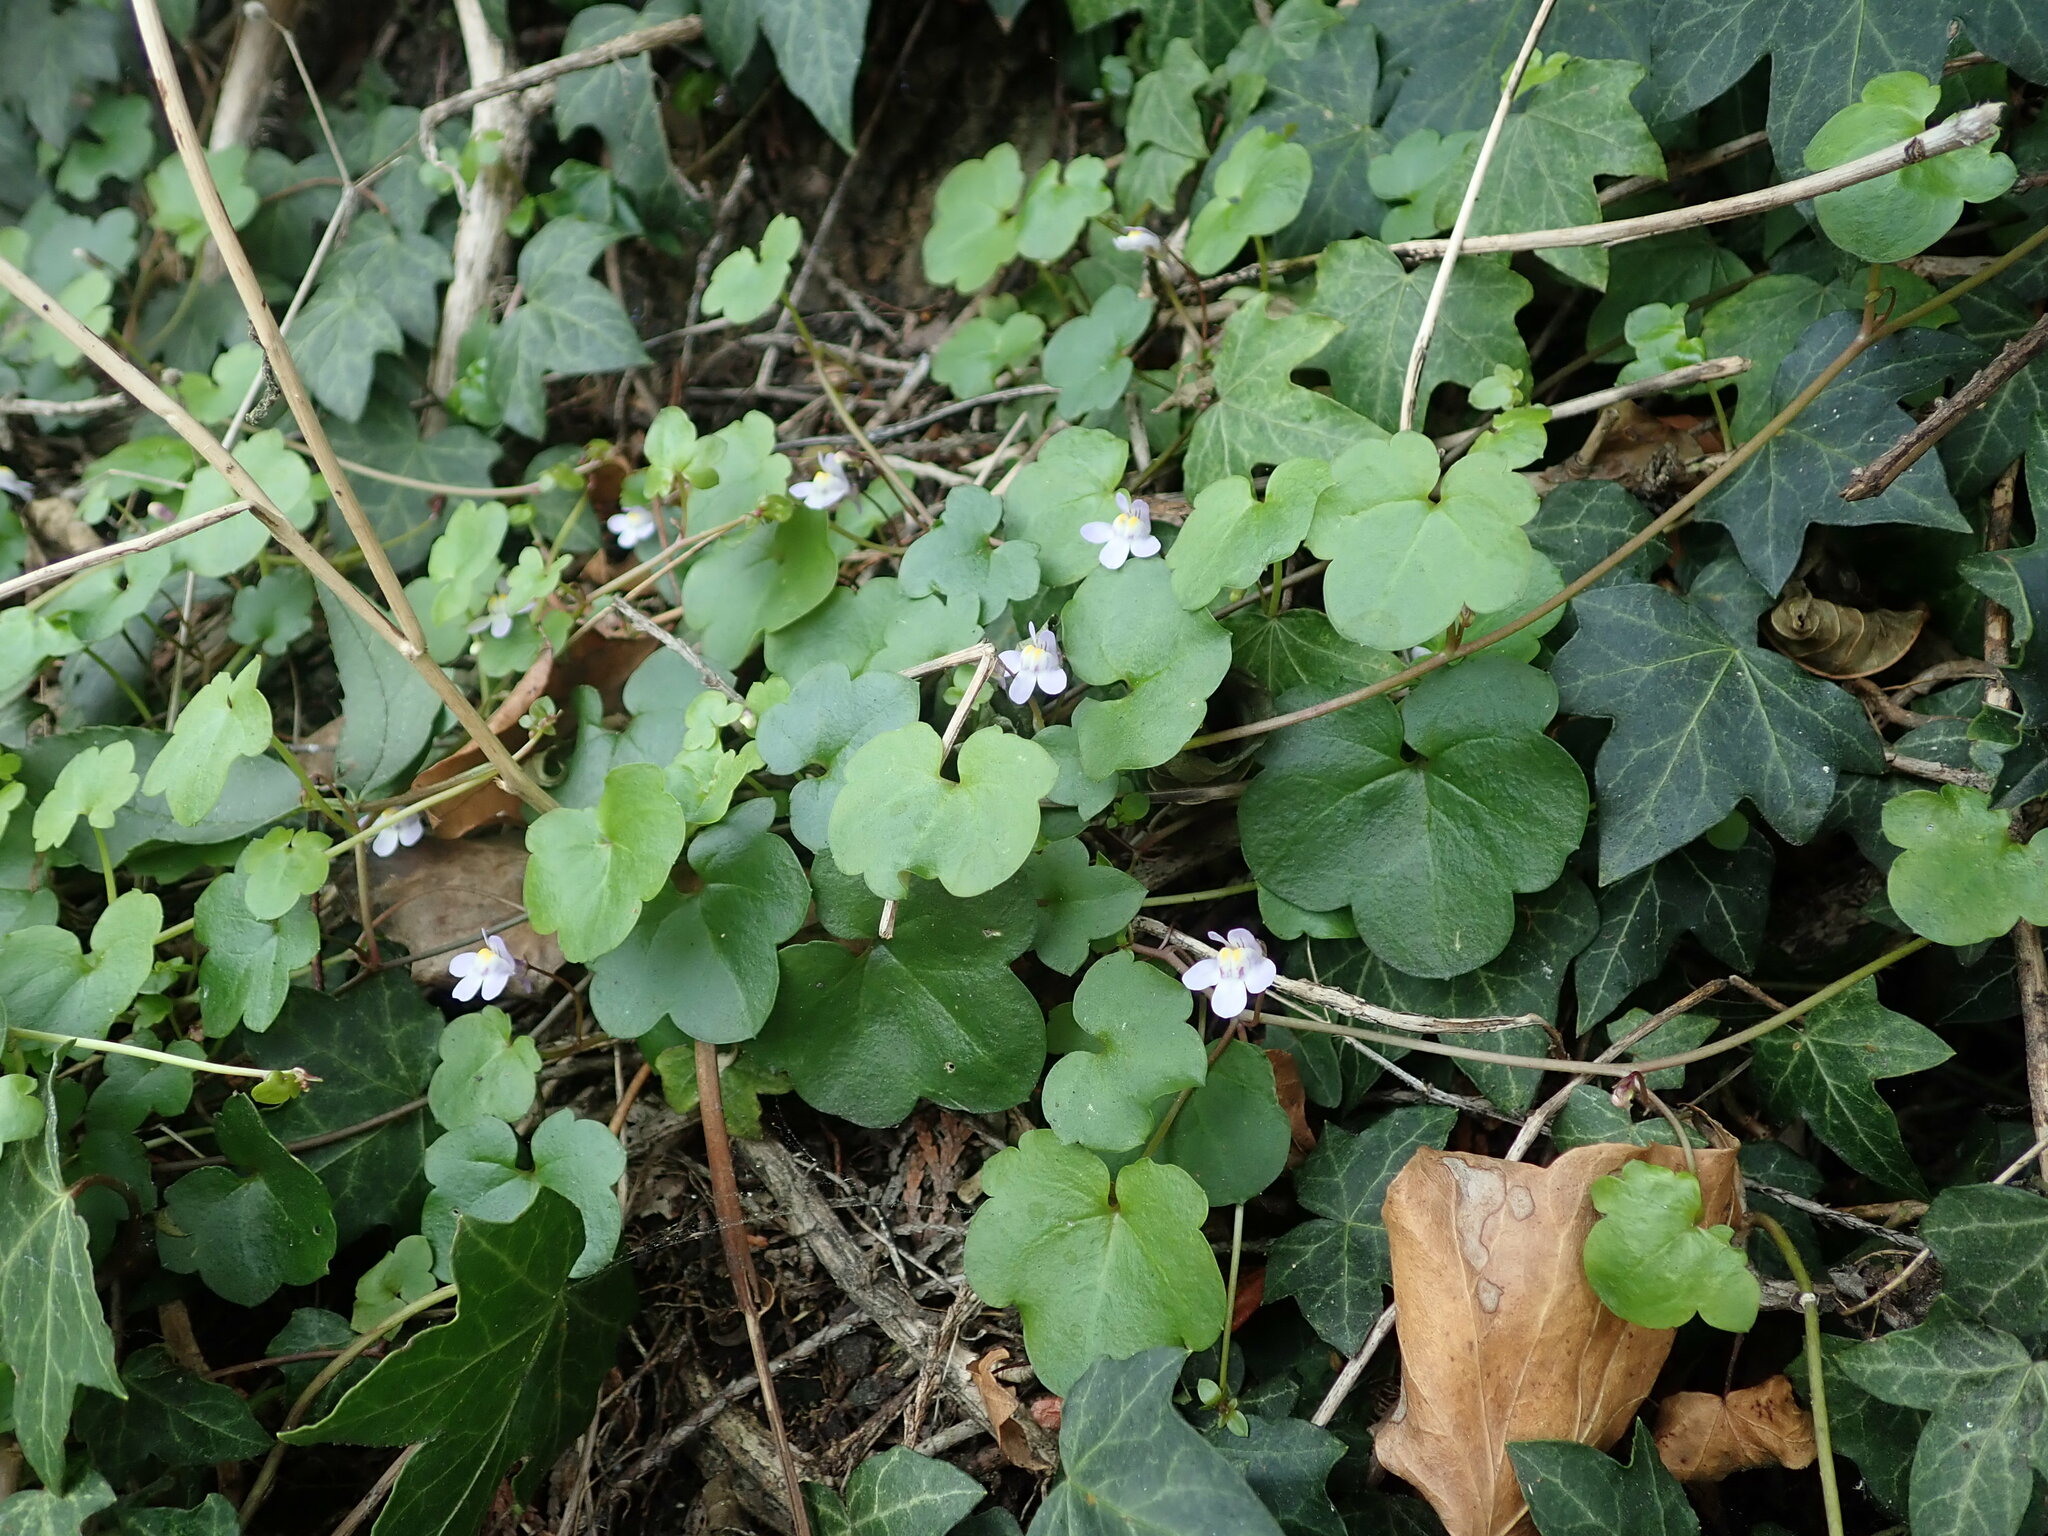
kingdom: Plantae
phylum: Tracheophyta
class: Magnoliopsida
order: Lamiales
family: Plantaginaceae
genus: Cymbalaria
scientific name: Cymbalaria muralis
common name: Ivy-leaved toadflax
